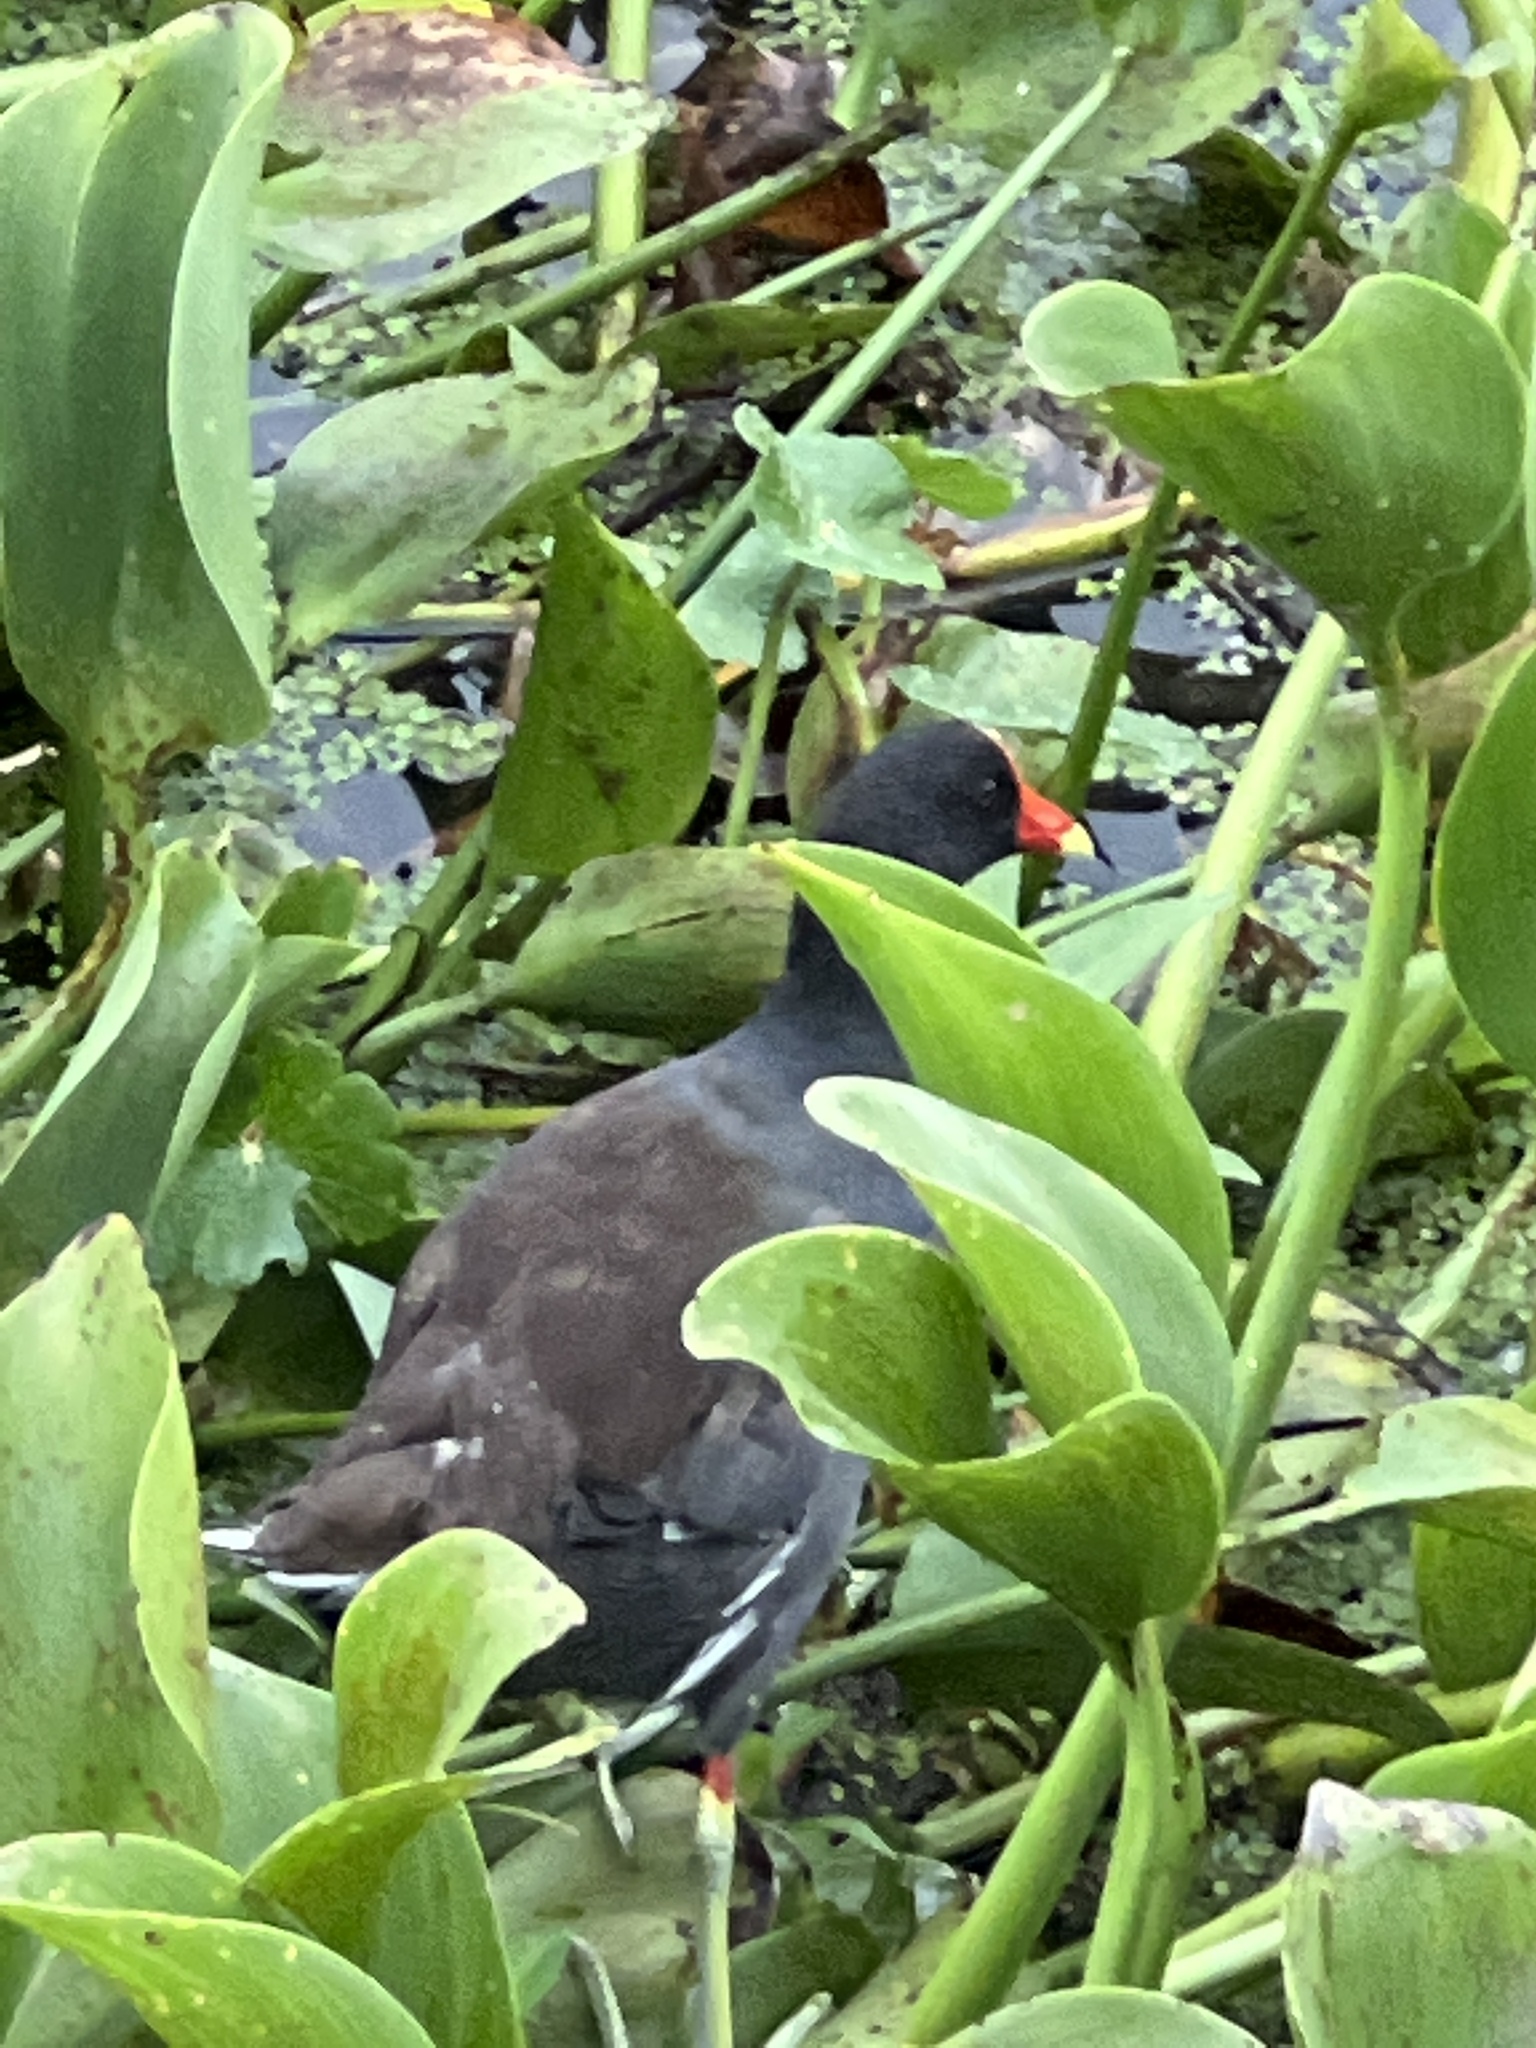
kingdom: Animalia
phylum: Chordata
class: Aves
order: Gruiformes
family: Rallidae
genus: Gallinula
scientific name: Gallinula chloropus
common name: Common moorhen
